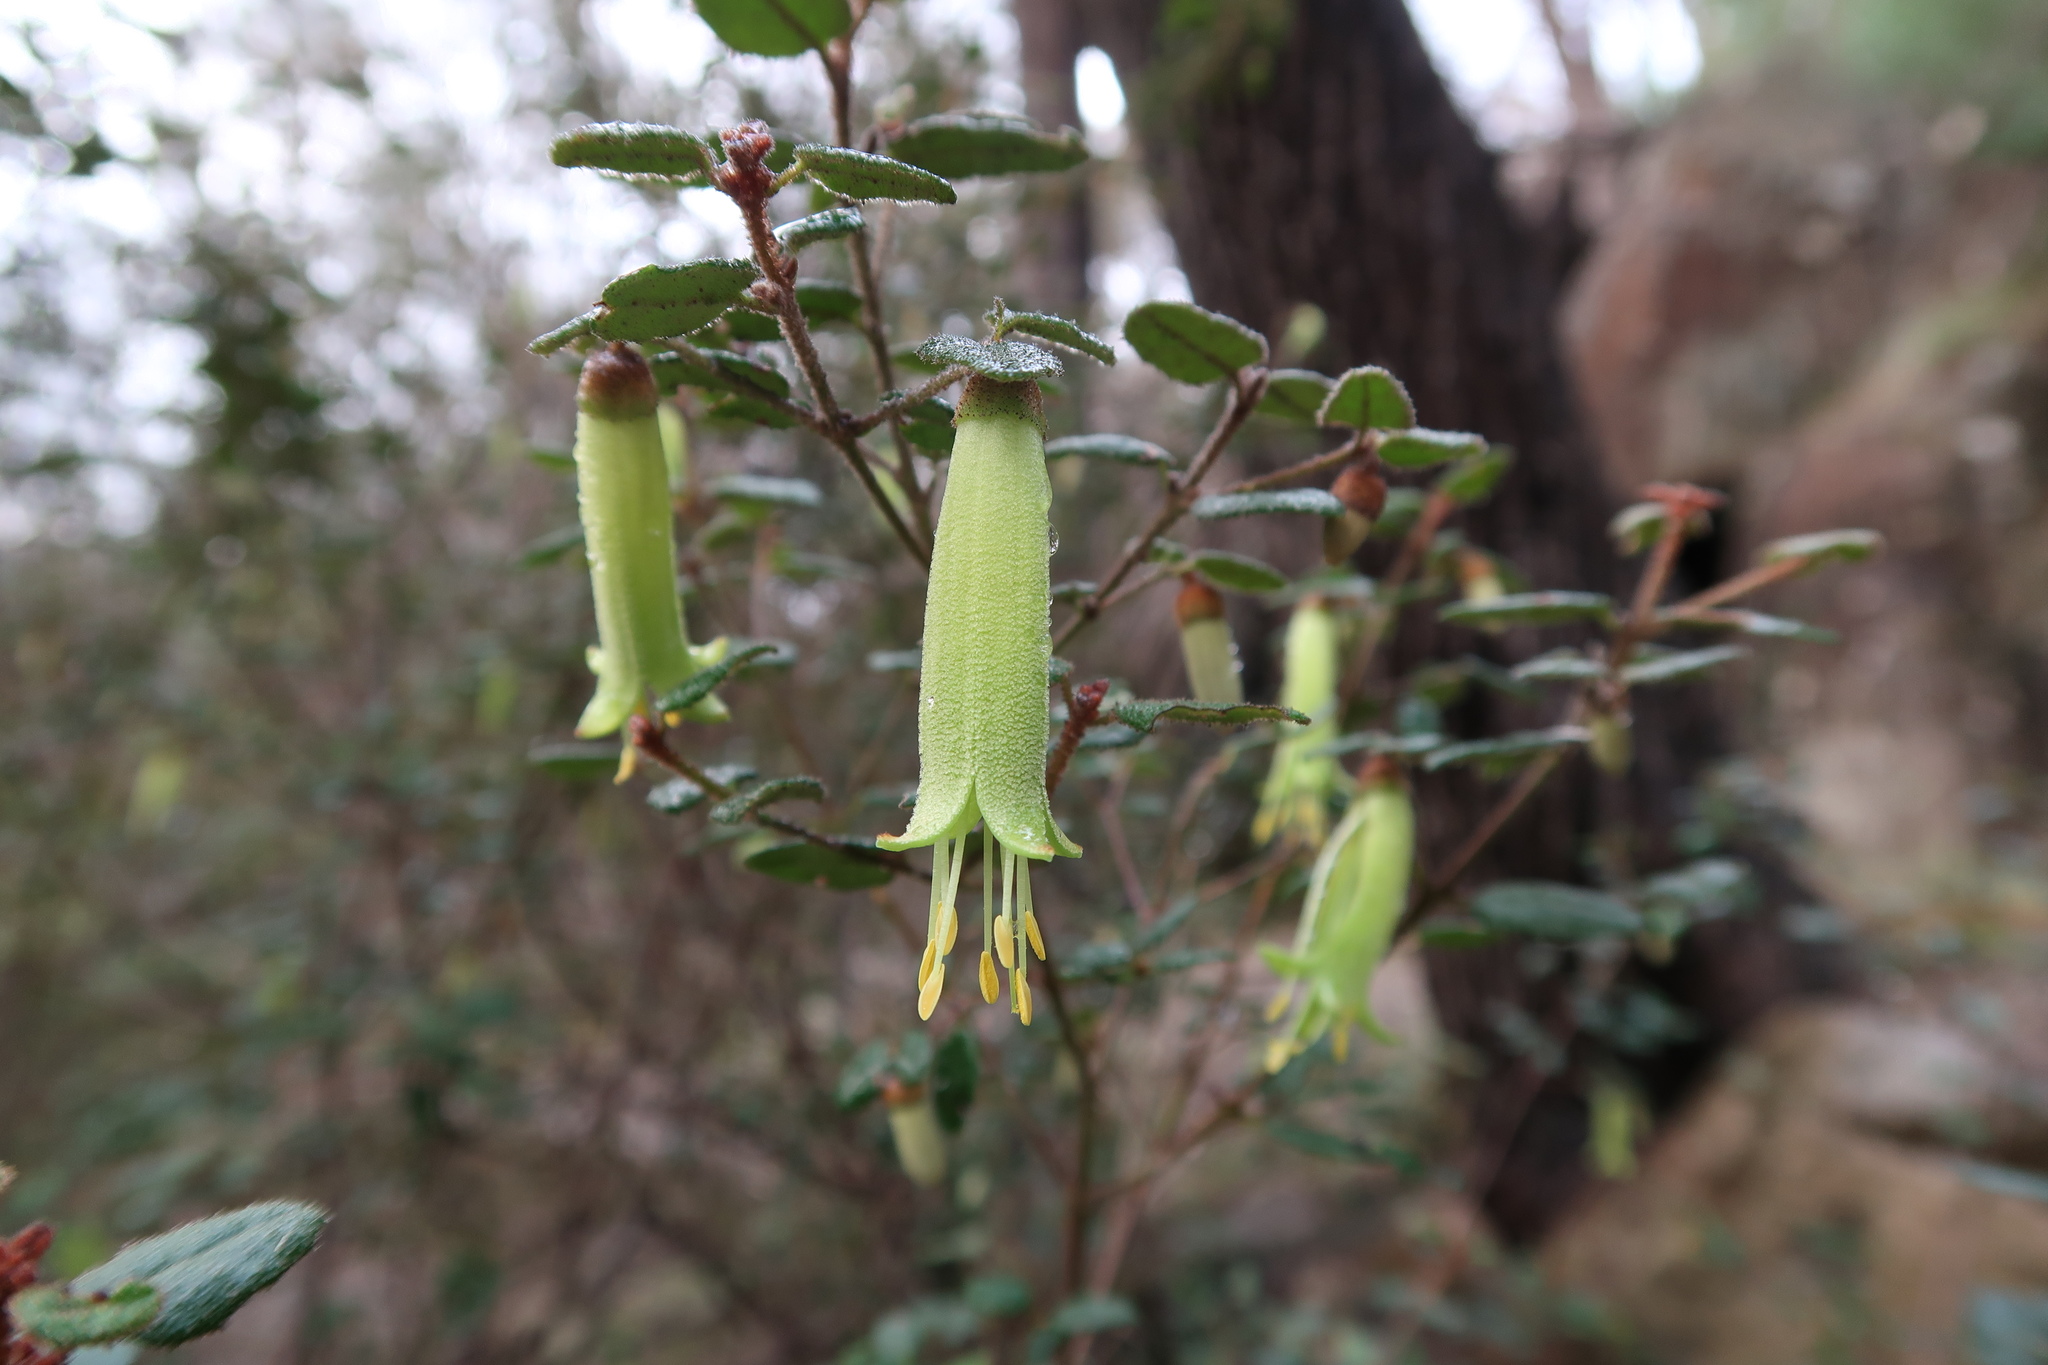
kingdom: Plantae
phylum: Tracheophyta
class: Magnoliopsida
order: Sapindales
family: Rutaceae
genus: Correa
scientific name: Correa reflexa
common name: Common correa
